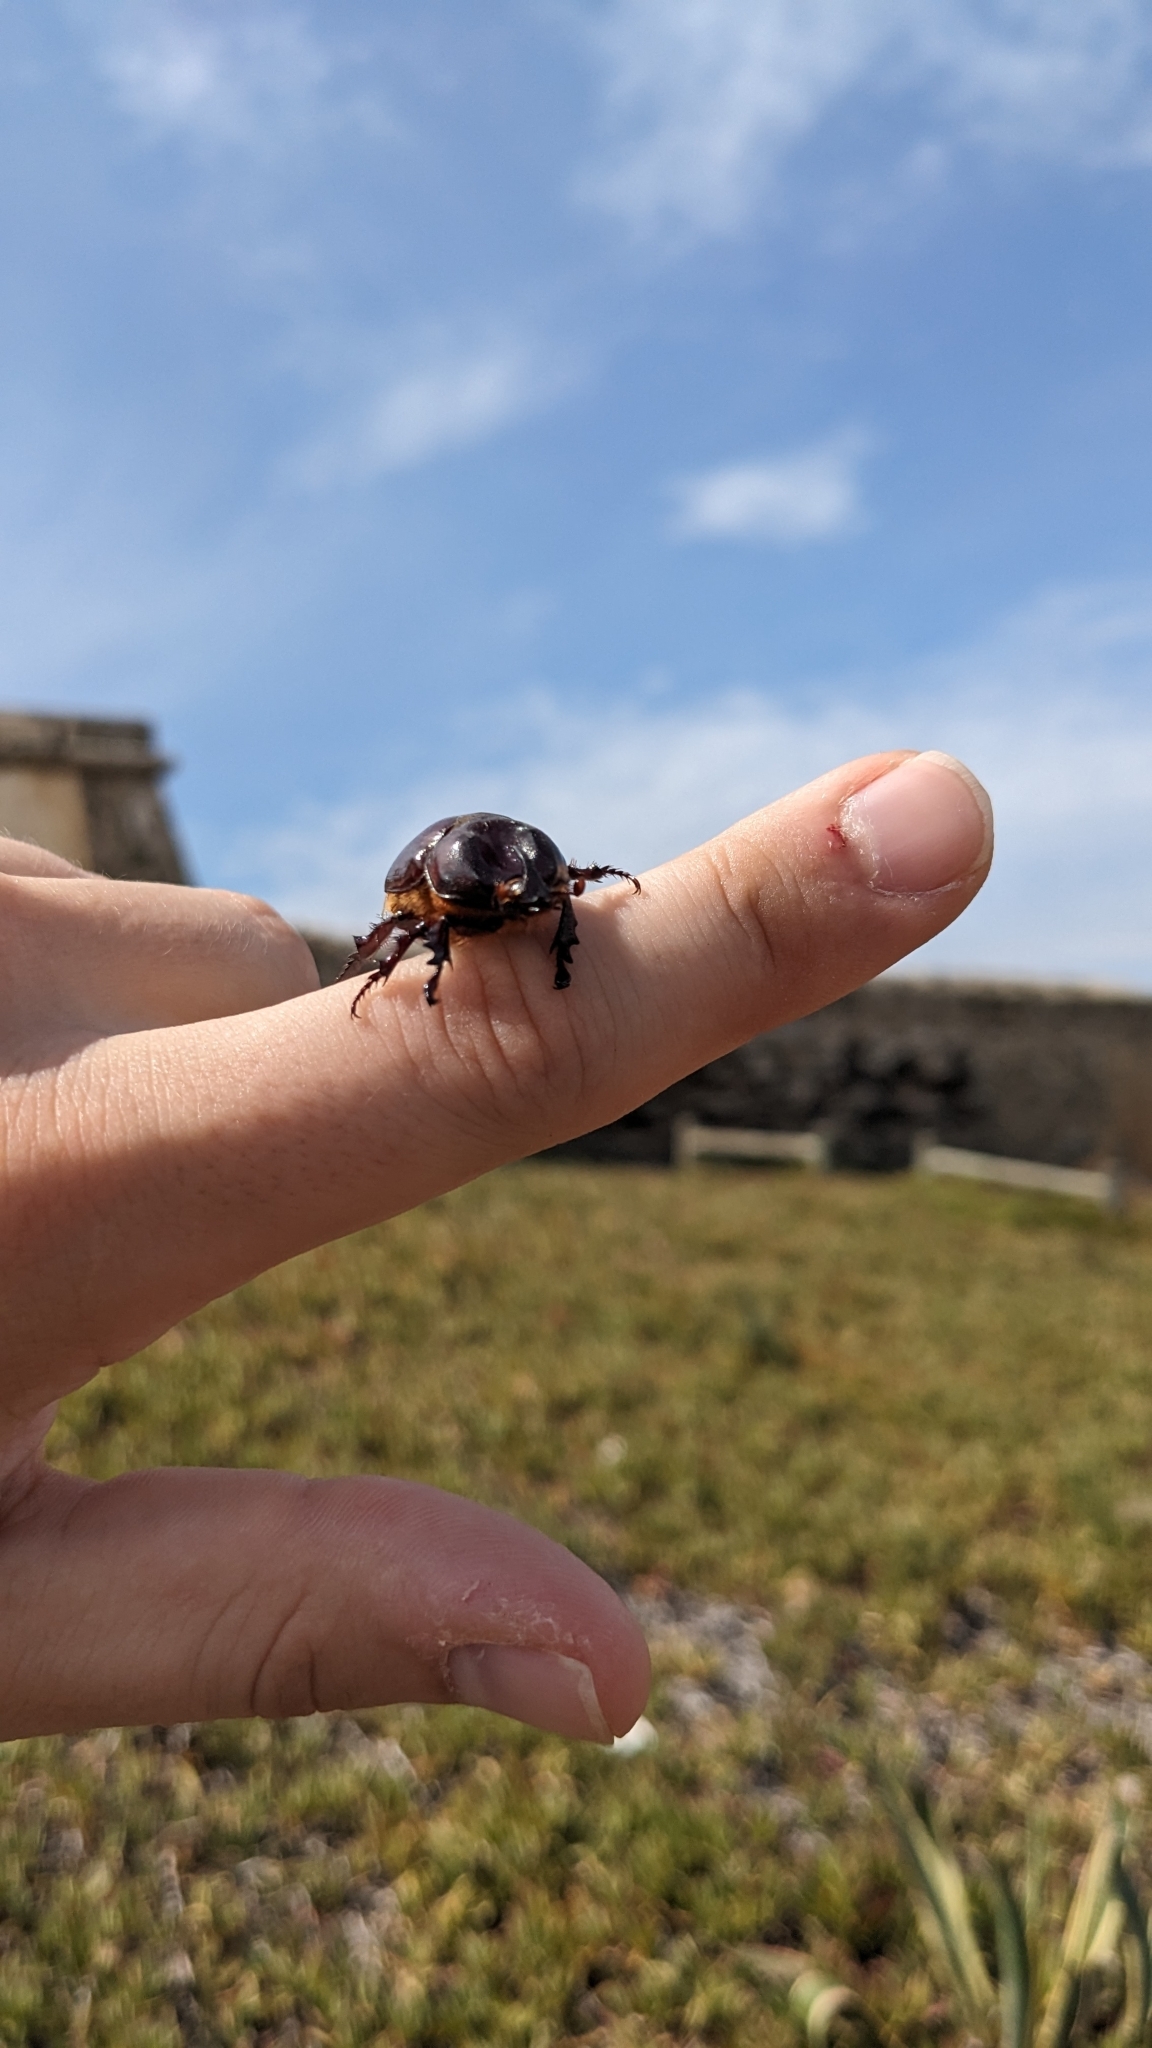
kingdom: Animalia
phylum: Arthropoda
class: Insecta
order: Coleoptera
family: Scarabaeidae
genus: Phyllognathus
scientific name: Phyllognathus excavatus
